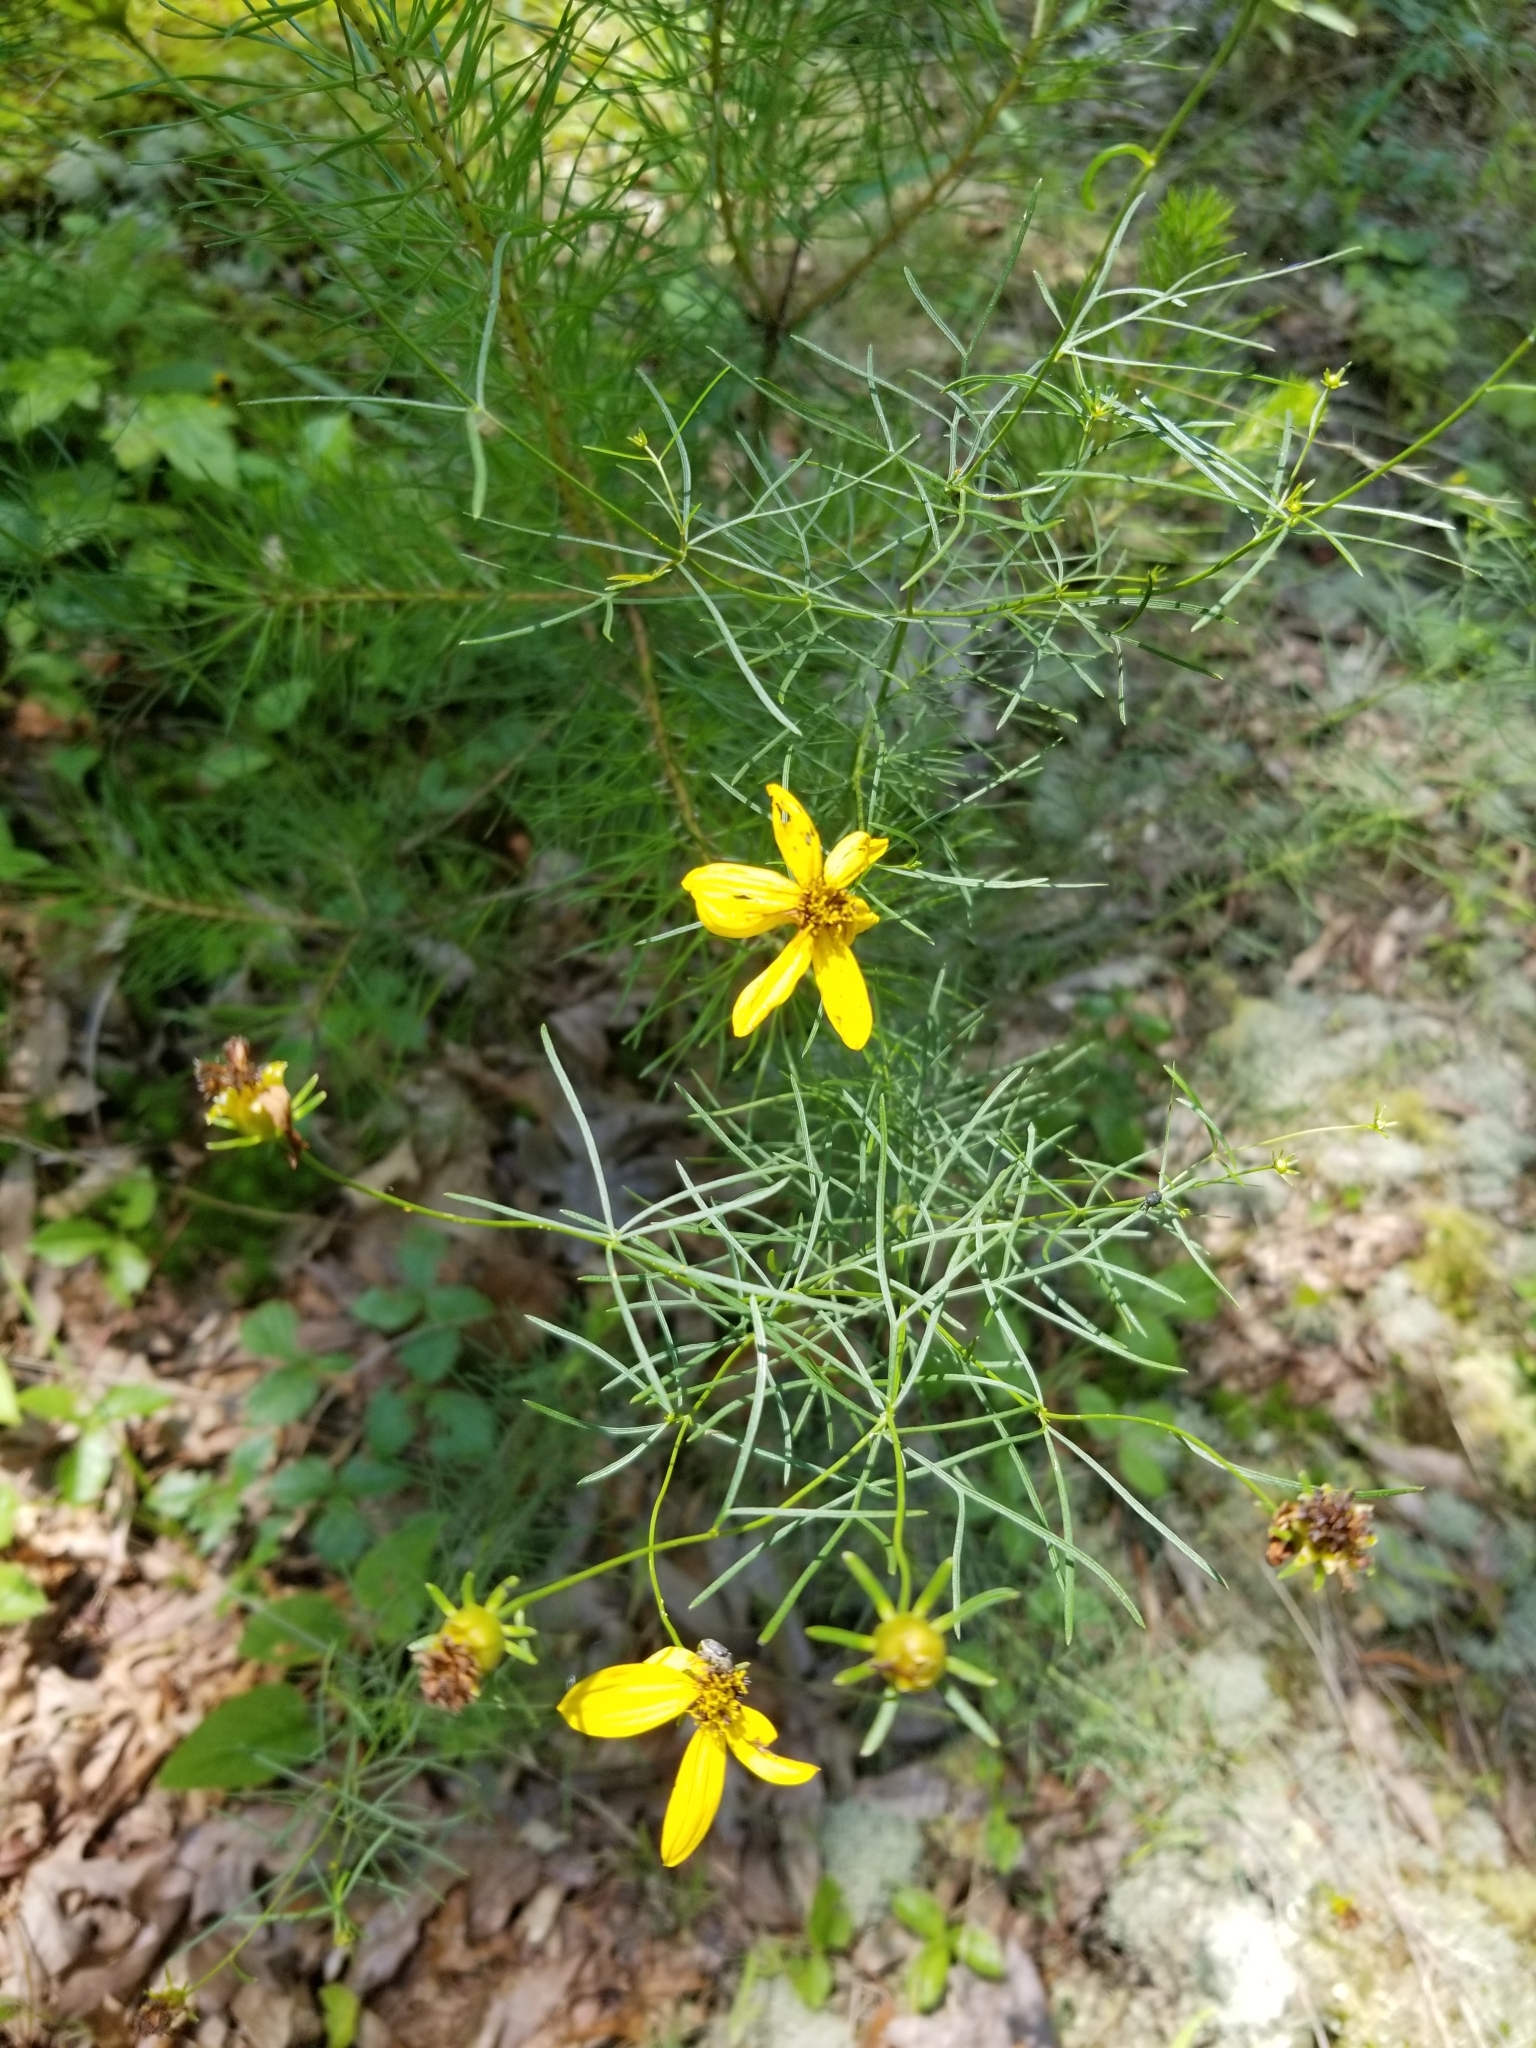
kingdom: Plantae
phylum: Tracheophyta
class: Magnoliopsida
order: Asterales
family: Asteraceae
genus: Coreopsis
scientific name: Coreopsis verticillata
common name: Whorled tickseed
